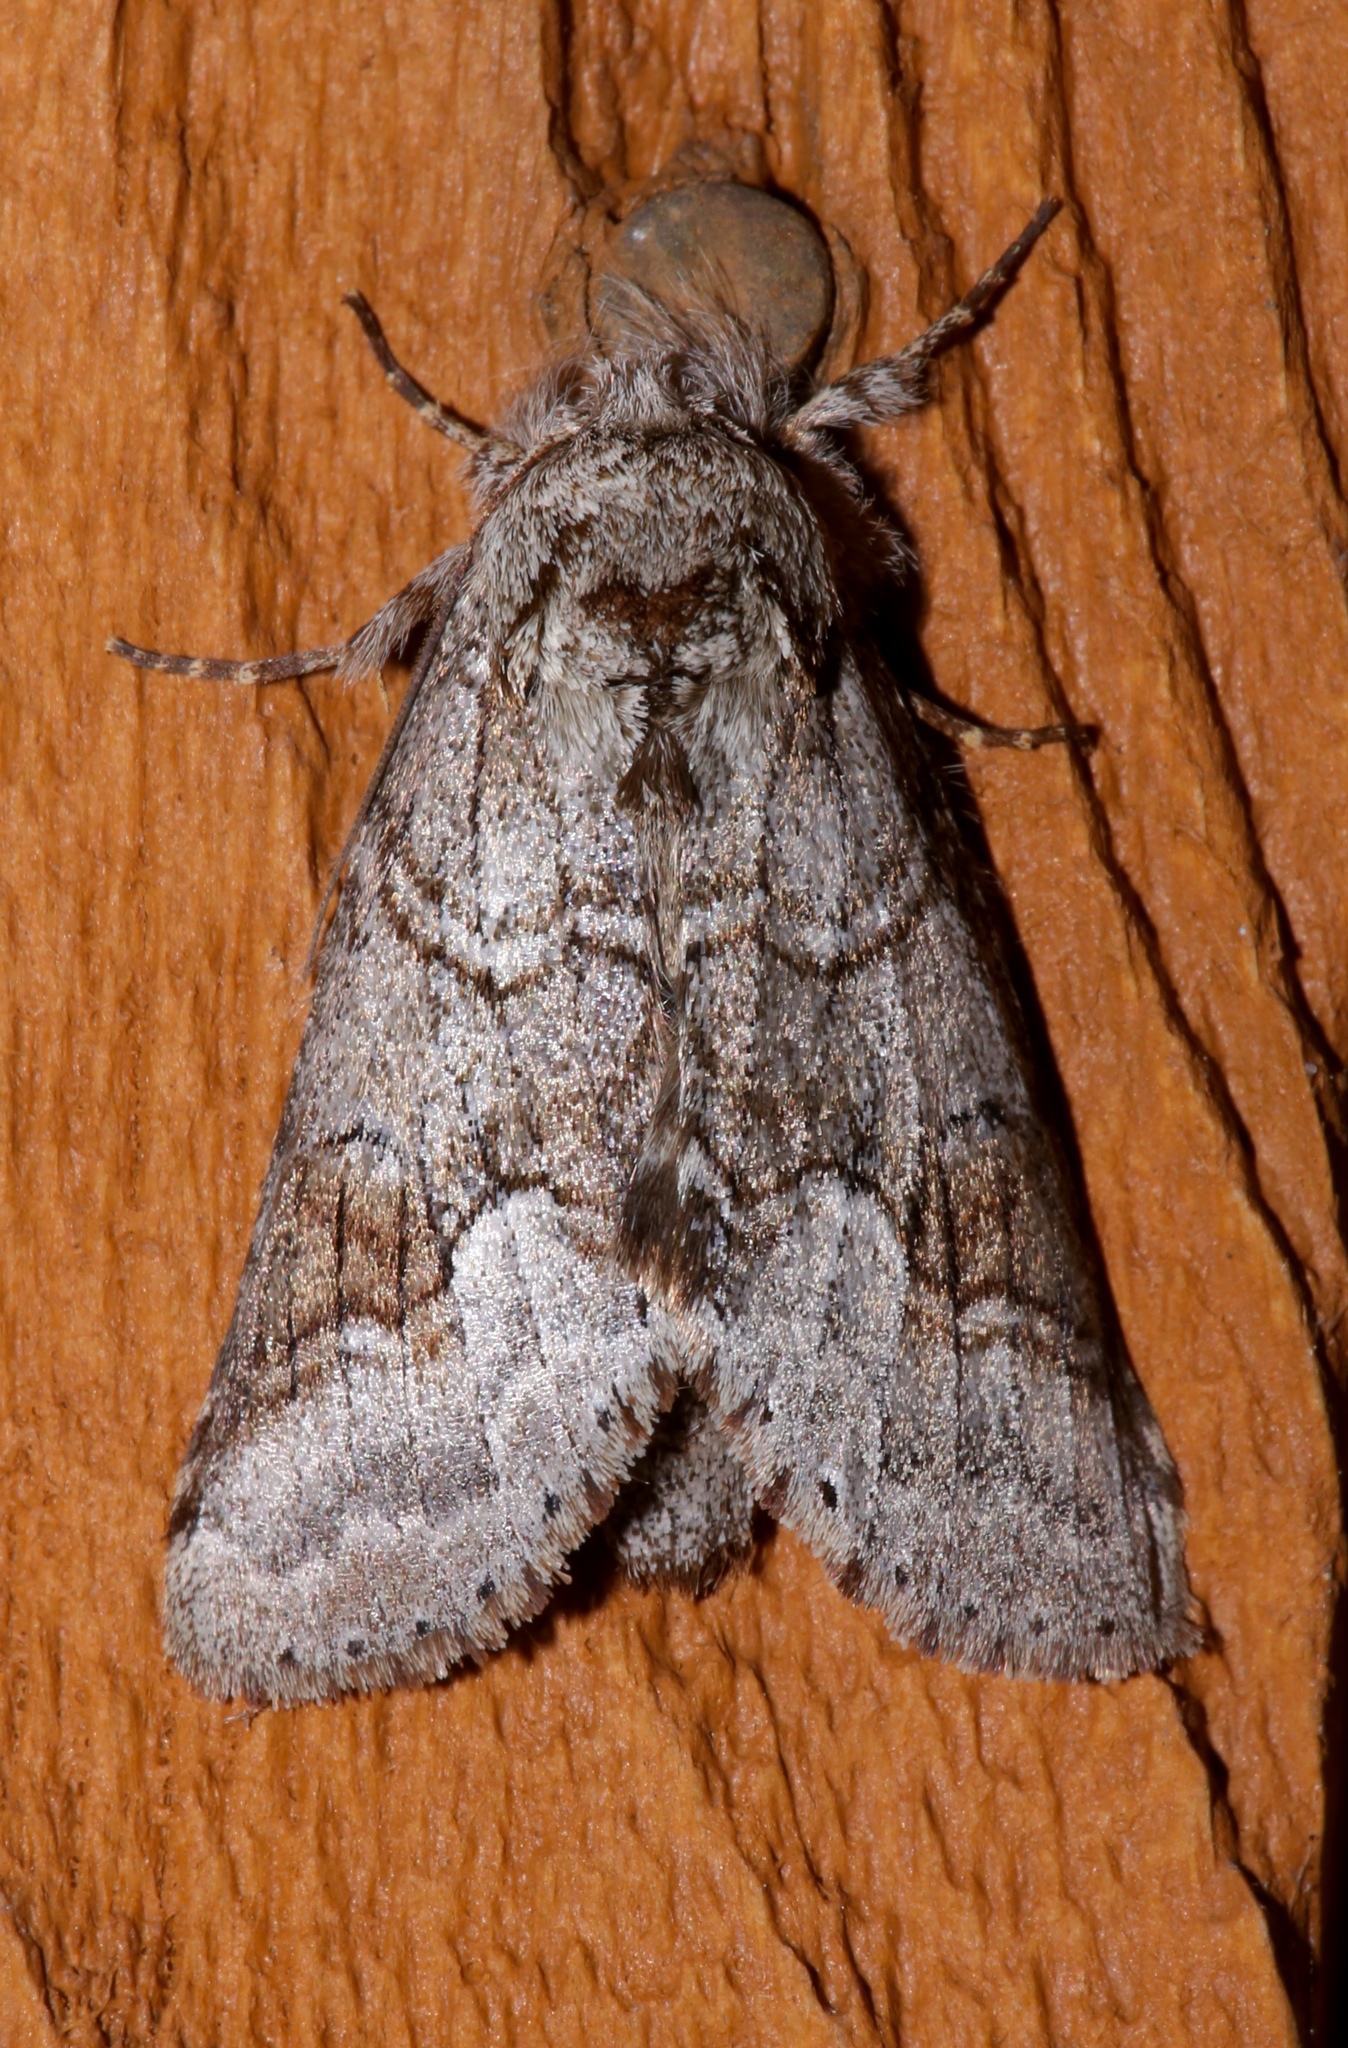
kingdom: Animalia
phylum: Arthropoda
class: Insecta
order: Lepidoptera
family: Notodontidae
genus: Lochmaeus
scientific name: Lochmaeus bilineata
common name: Double-lined prominent
